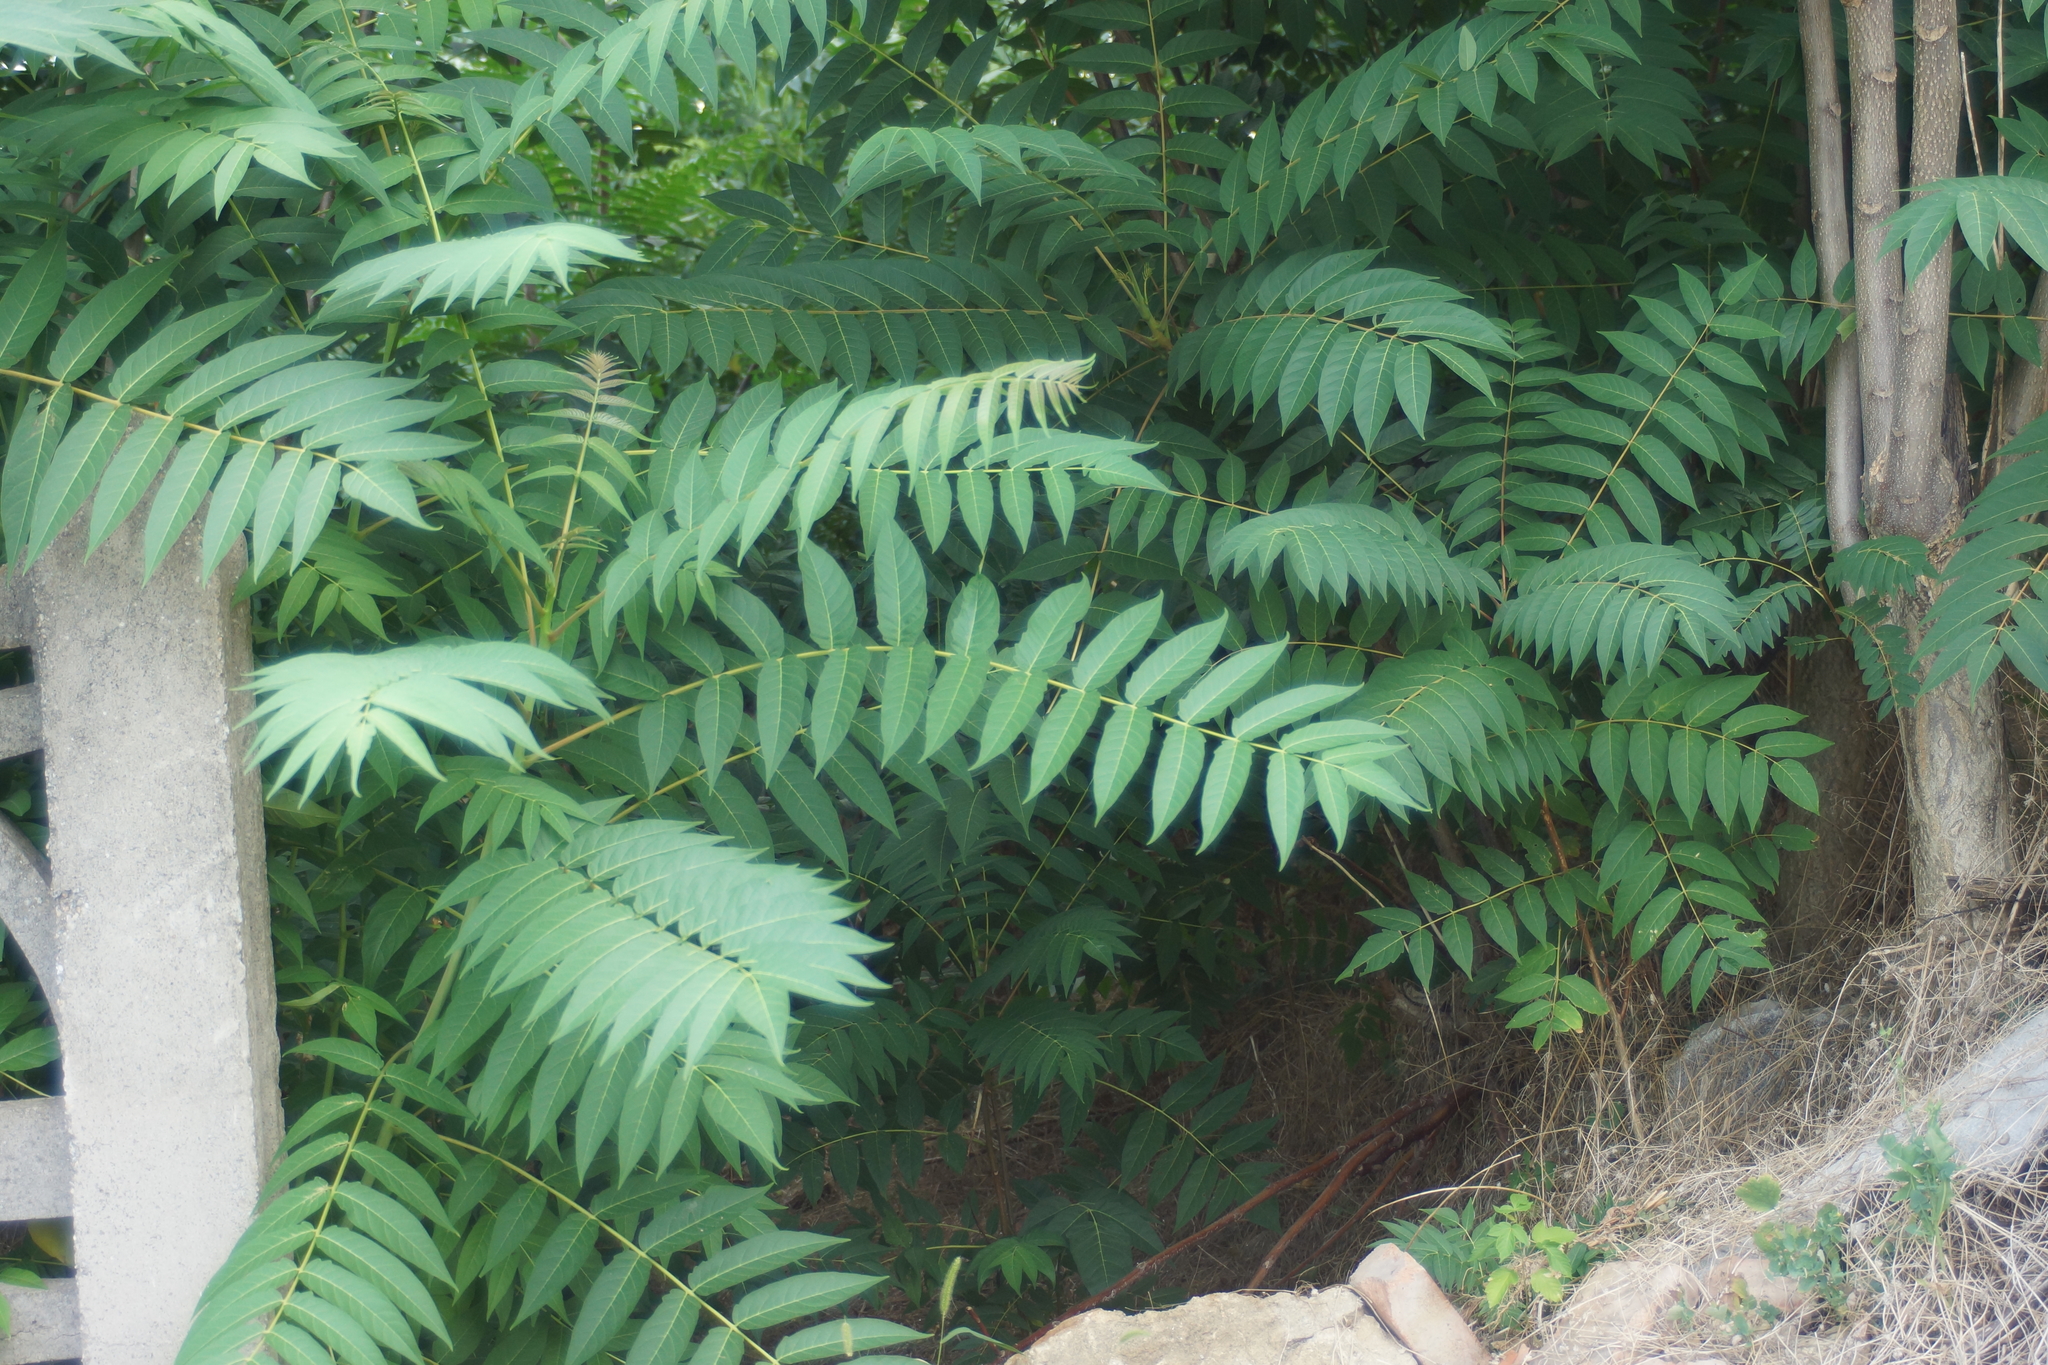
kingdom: Plantae
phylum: Tracheophyta
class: Magnoliopsida
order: Sapindales
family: Simaroubaceae
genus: Ailanthus
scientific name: Ailanthus altissima
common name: Tree-of-heaven
